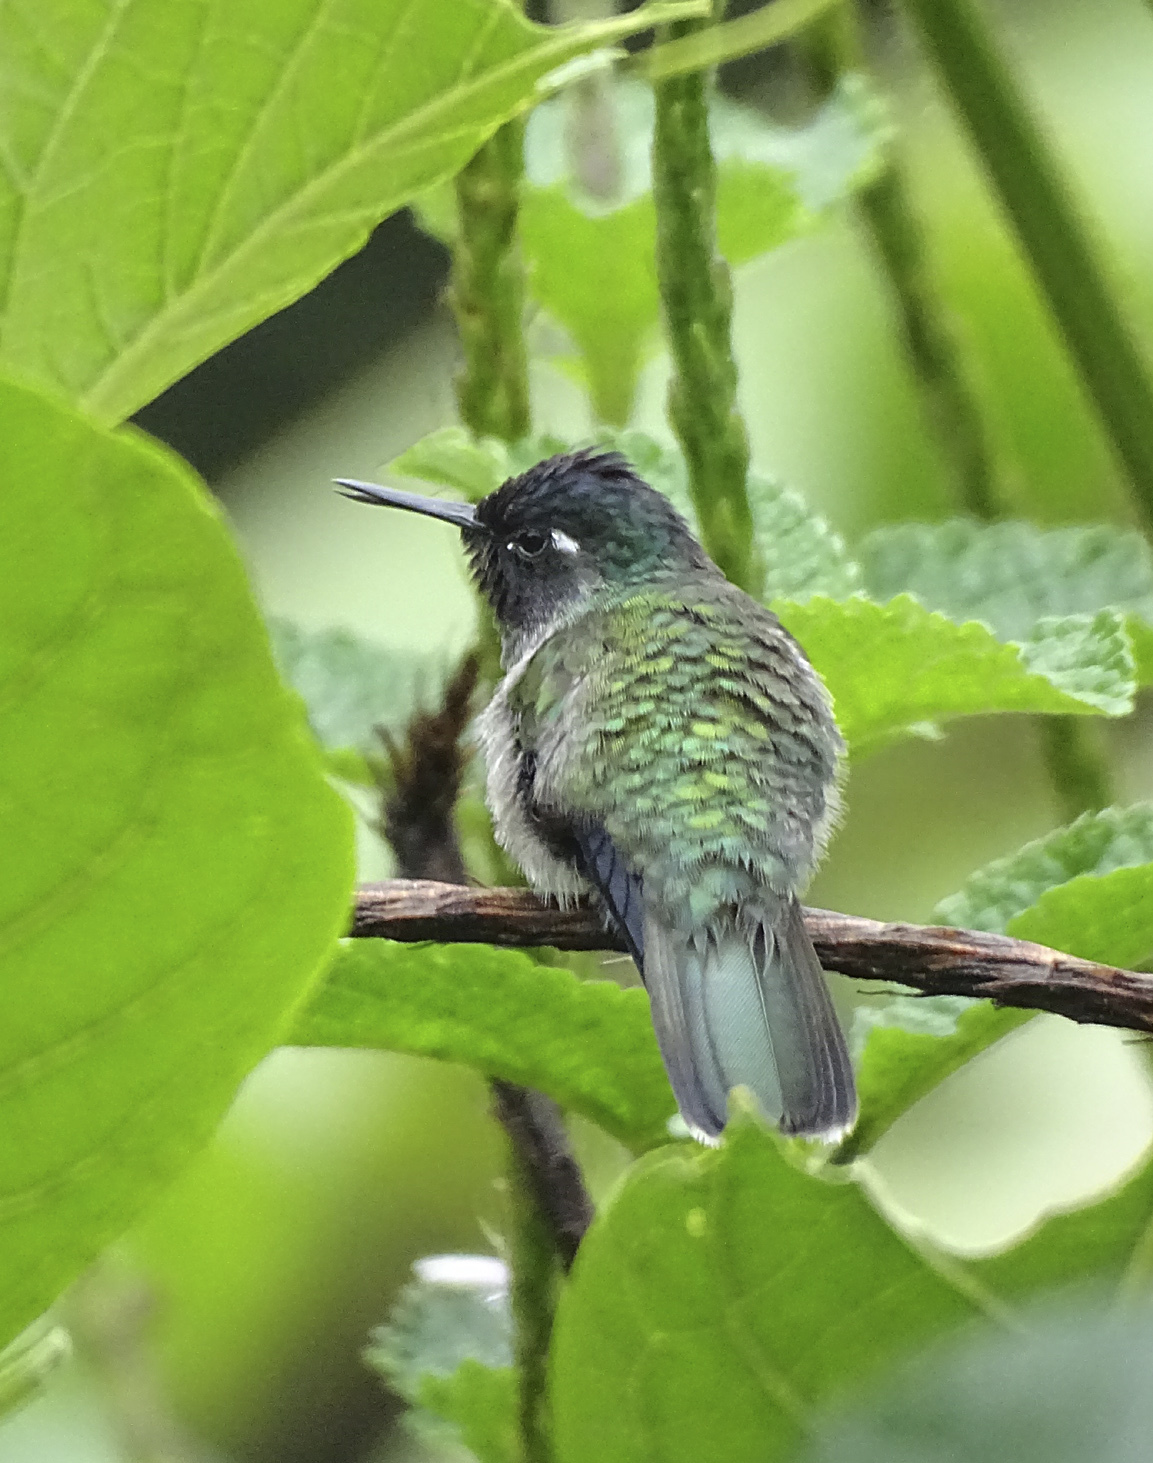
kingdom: Animalia
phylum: Chordata
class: Aves
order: Apodiformes
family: Trochilidae
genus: Klais
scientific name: Klais guimeti
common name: Violet-headed hummingbird
